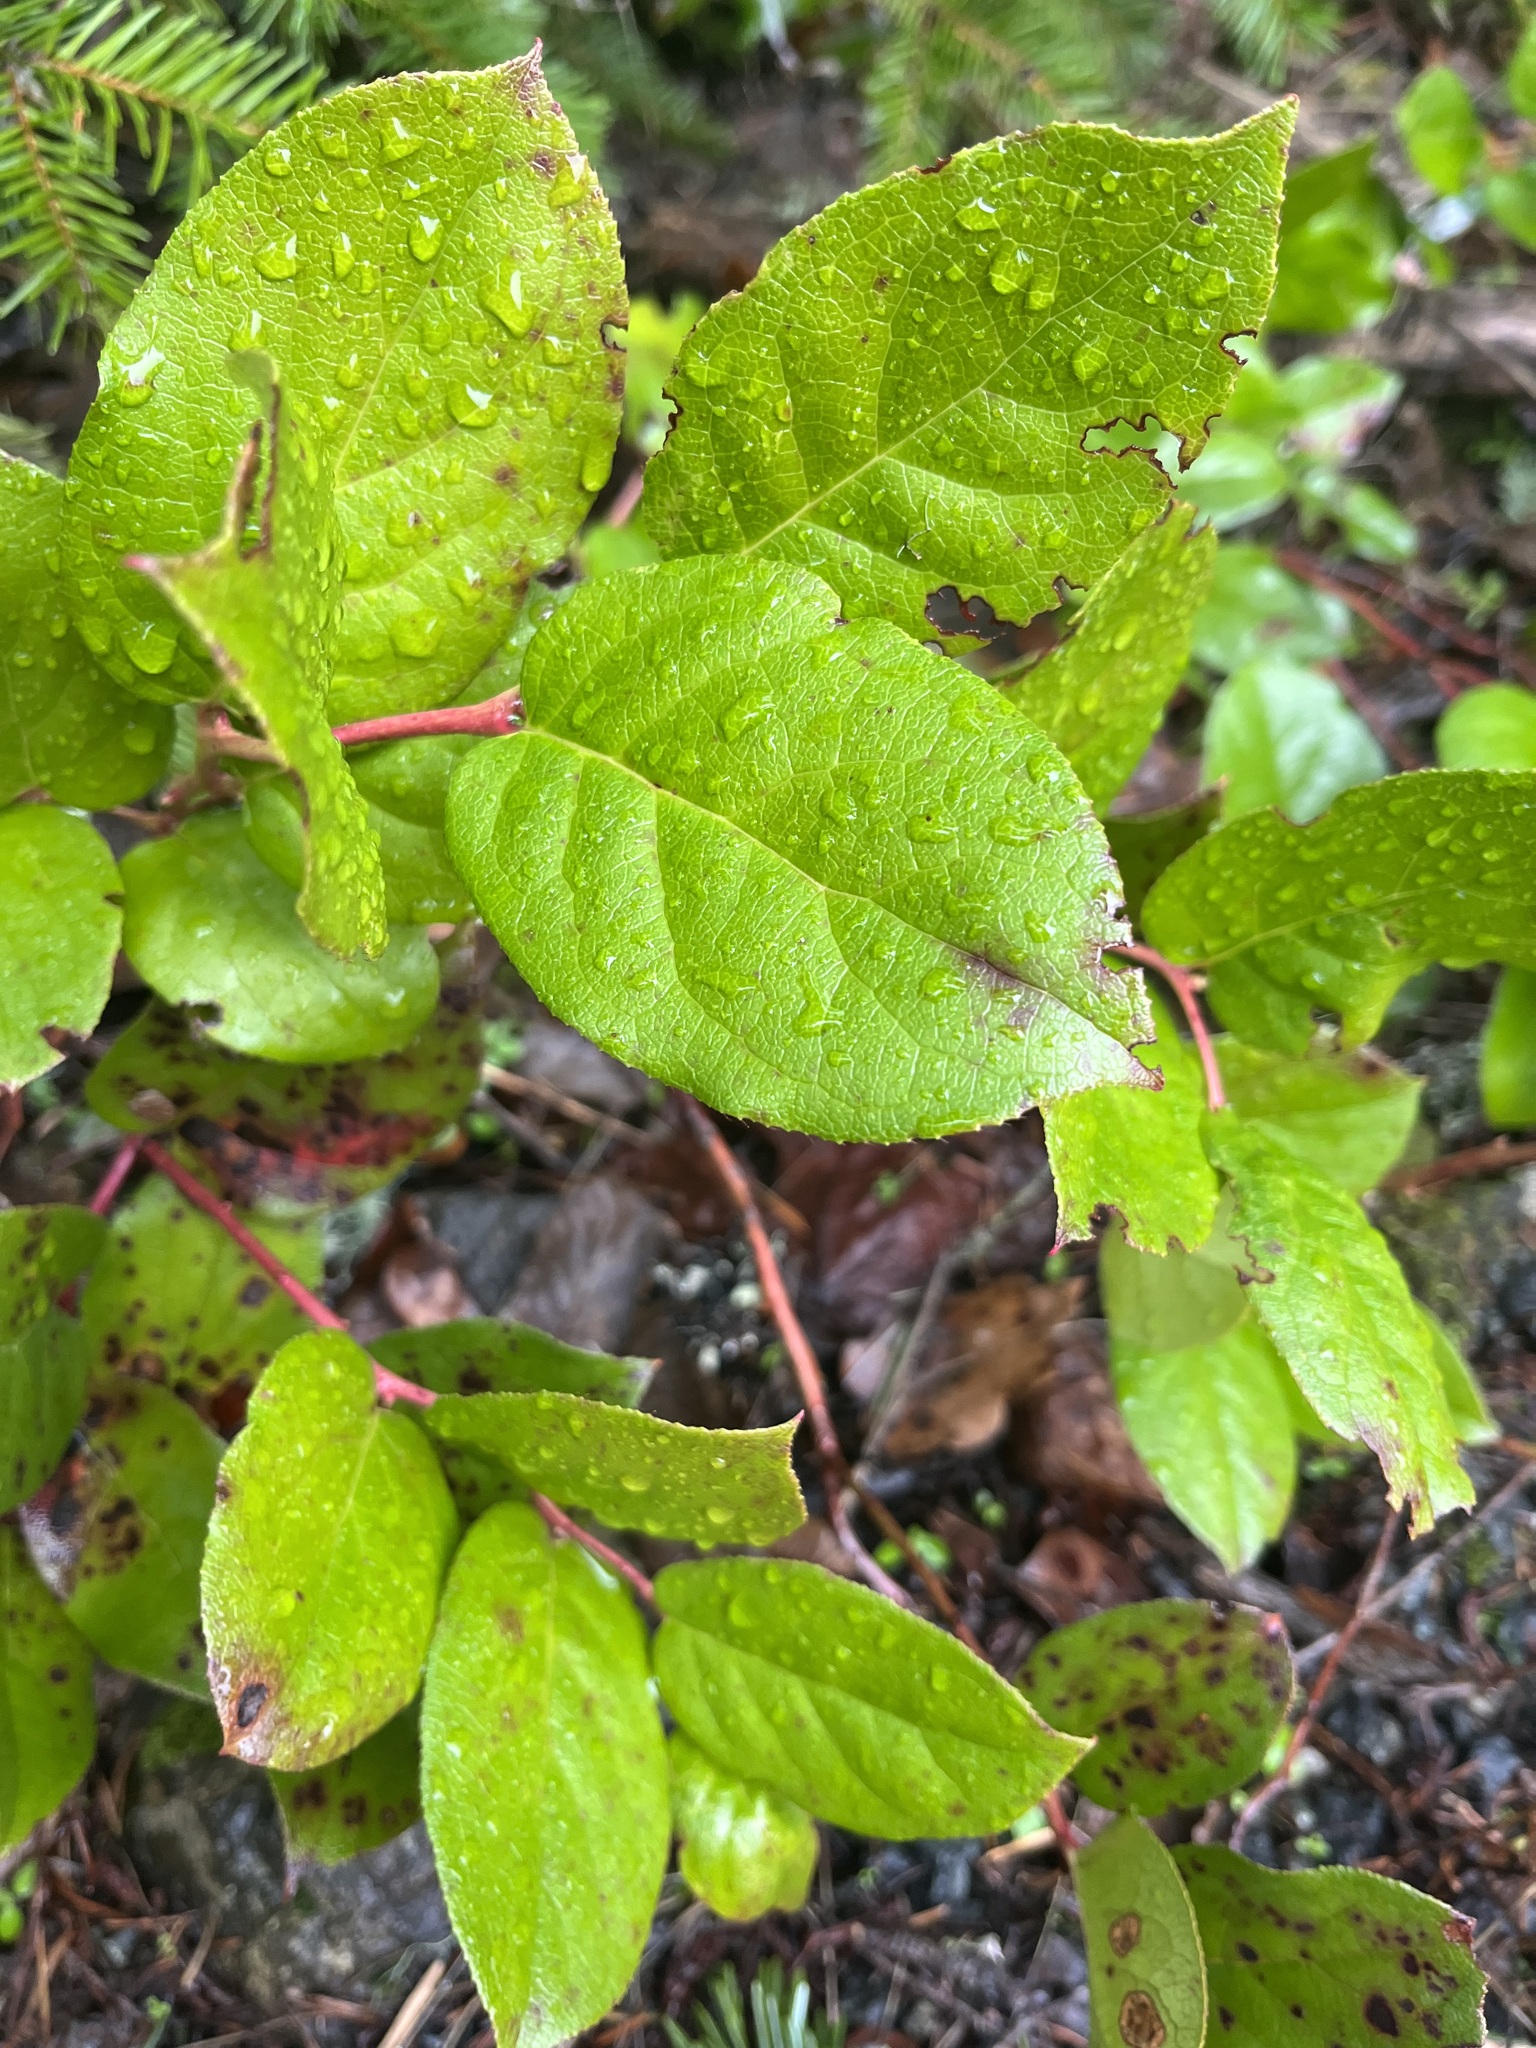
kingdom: Plantae
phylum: Tracheophyta
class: Magnoliopsida
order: Ericales
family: Ericaceae
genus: Gaultheria
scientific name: Gaultheria shallon
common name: Shallon
